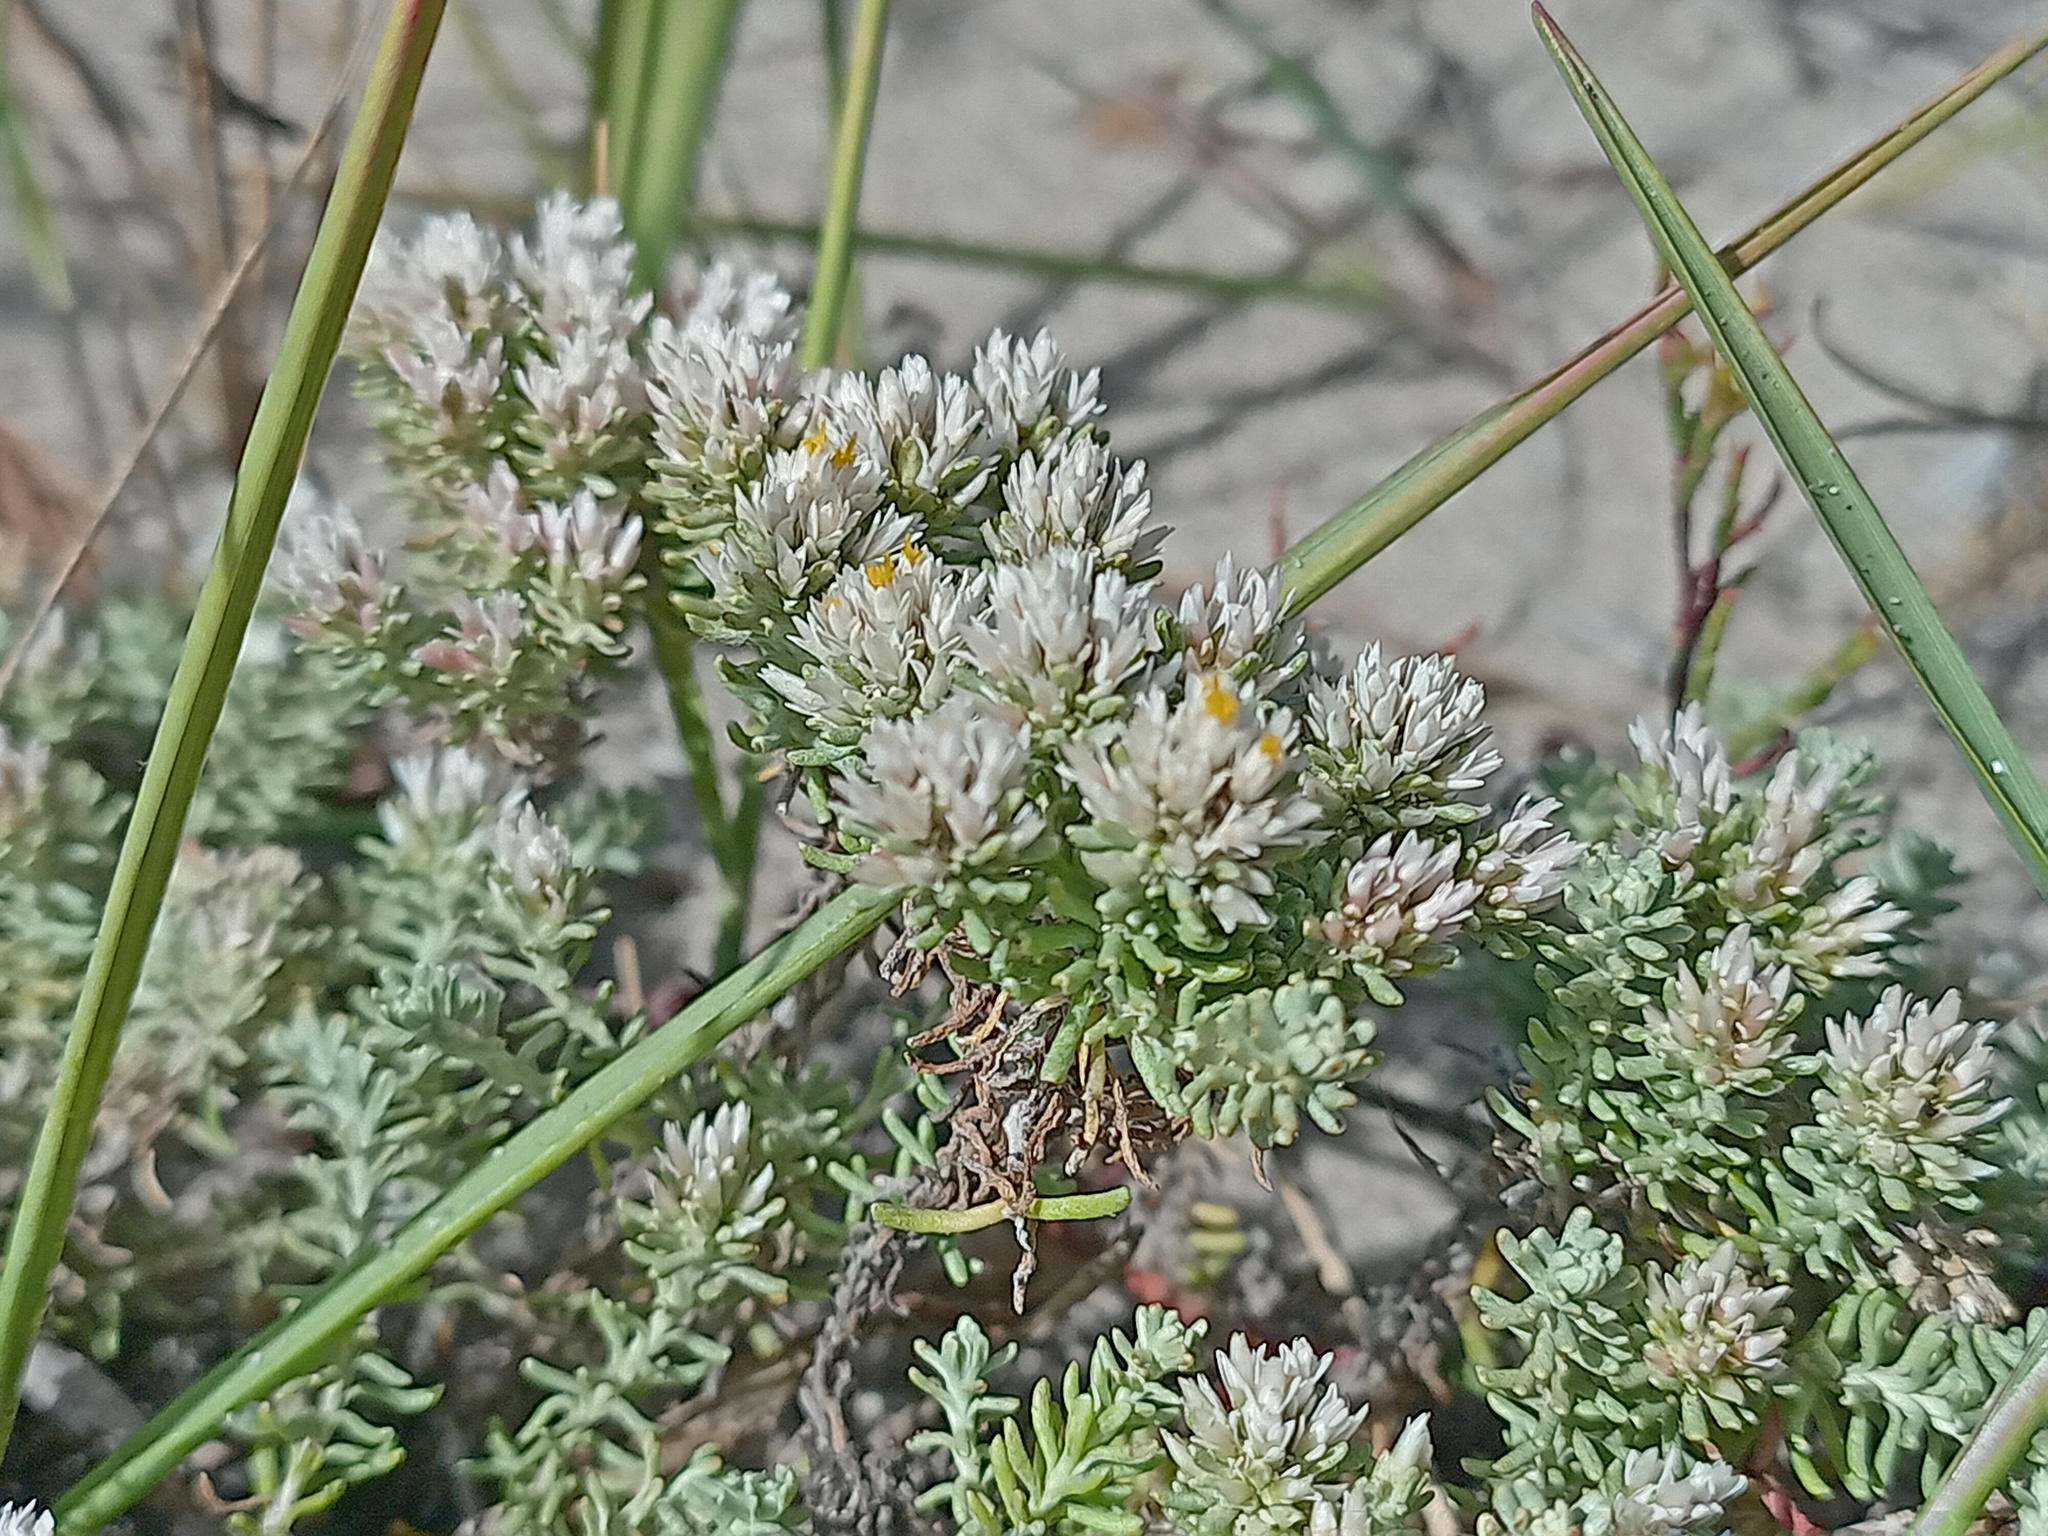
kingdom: Plantae
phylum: Tracheophyta
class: Magnoliopsida
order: Asterales
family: Asteraceae
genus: Helichrysum
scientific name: Helichrysum niveum
